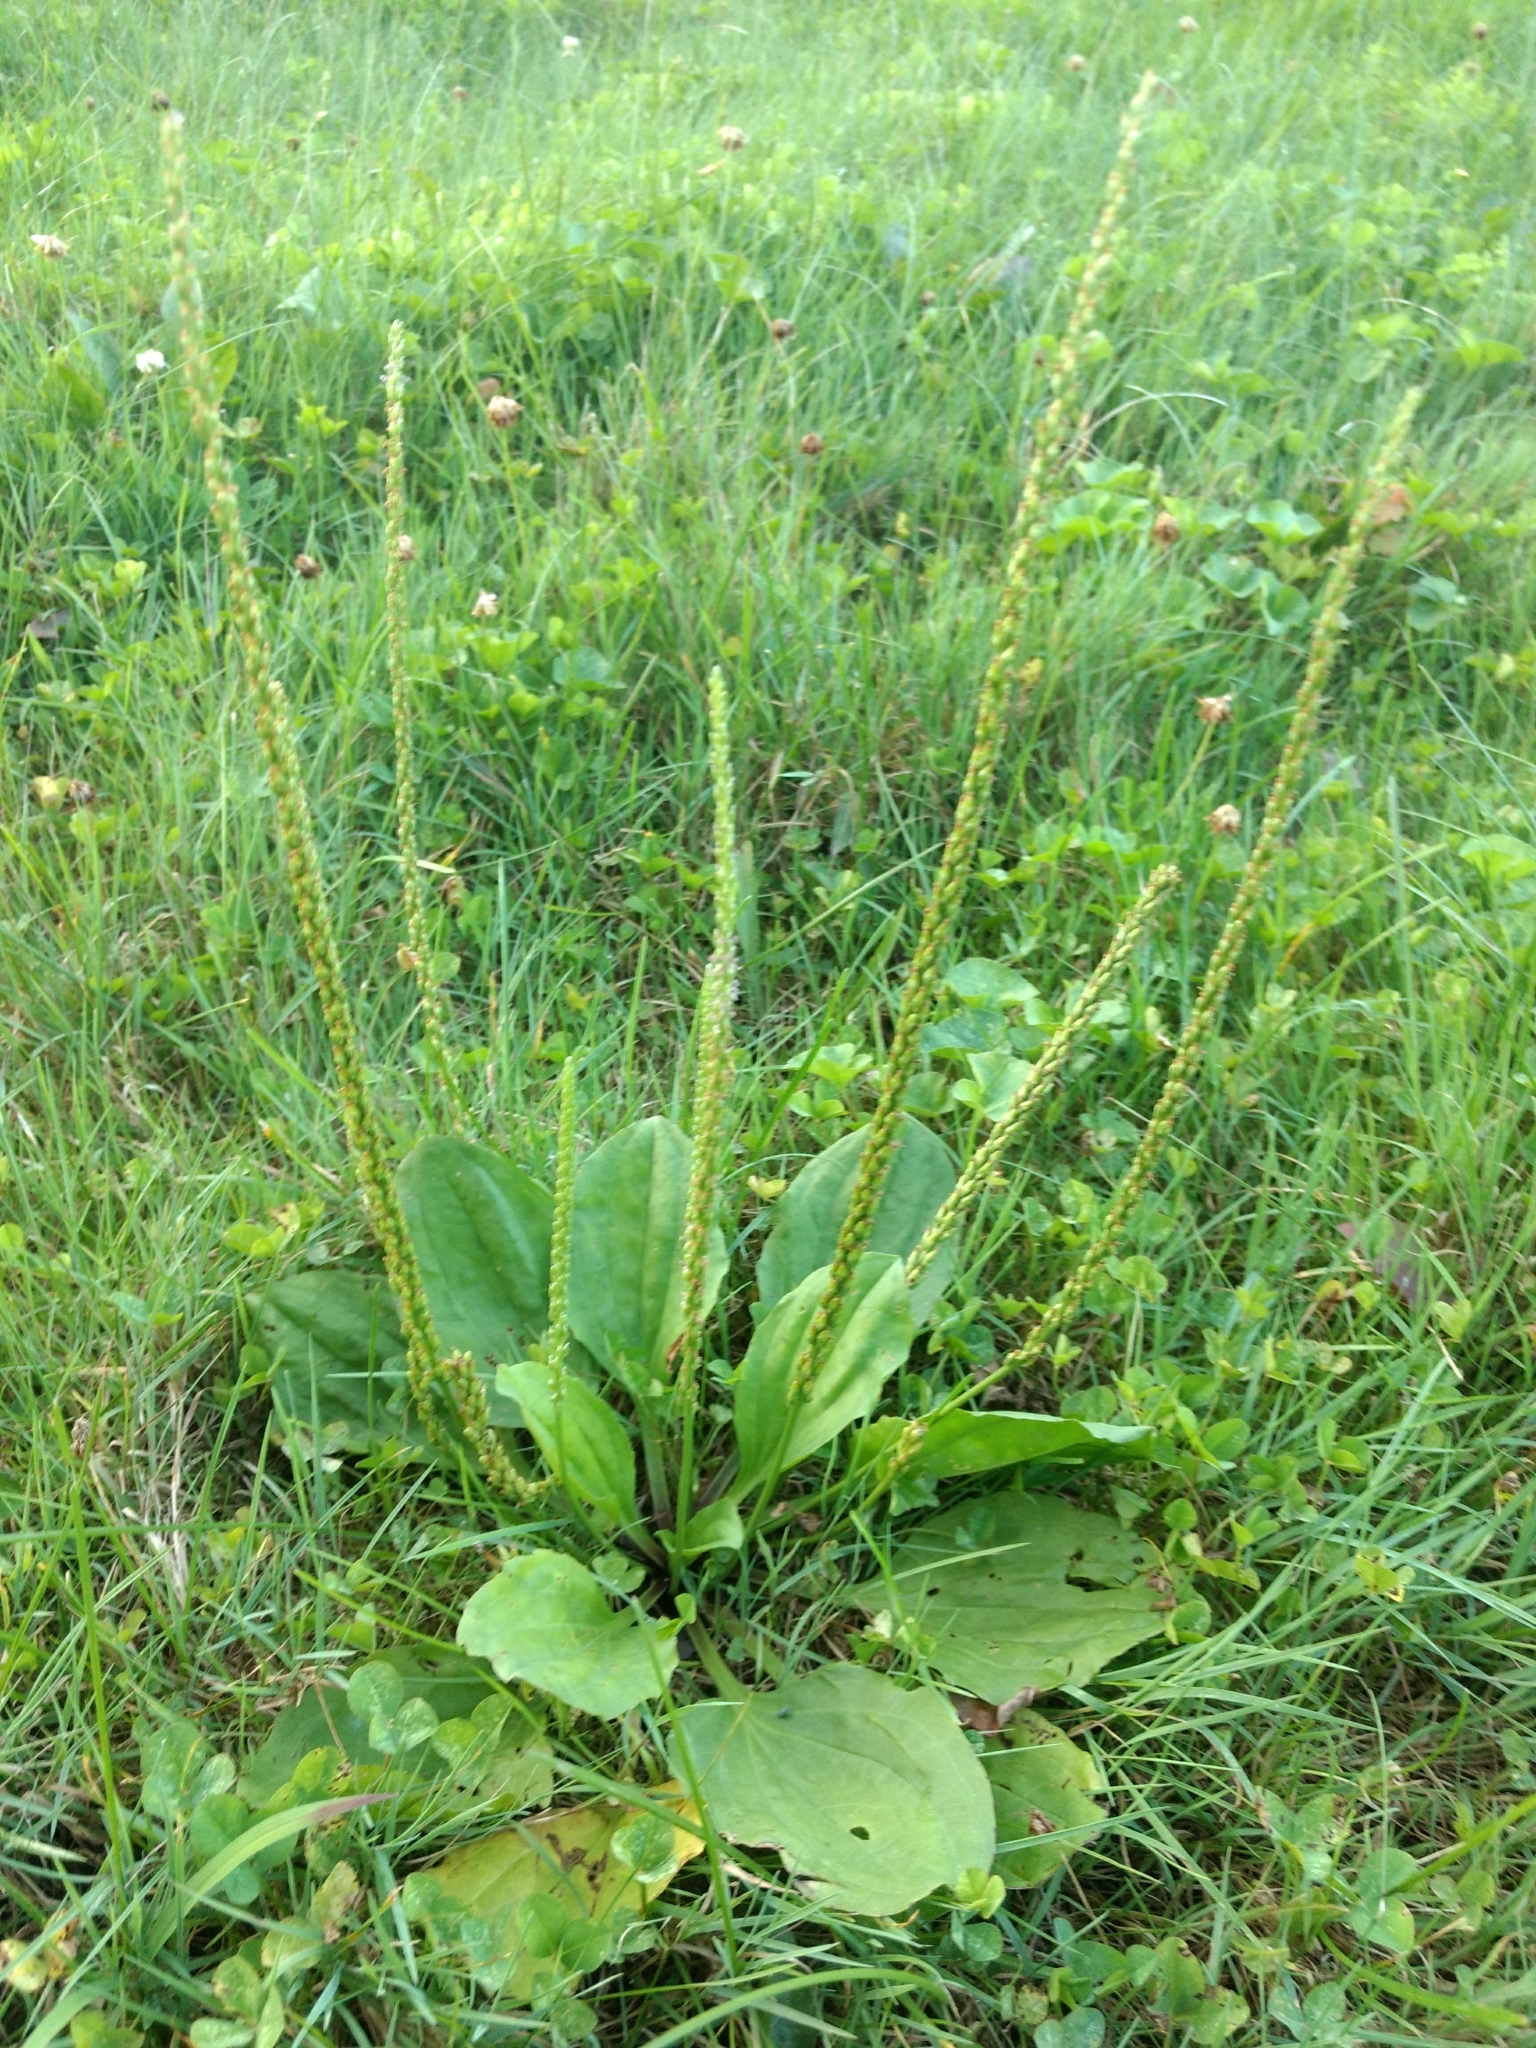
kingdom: Plantae
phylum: Tracheophyta
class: Magnoliopsida
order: Lamiales
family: Plantaginaceae
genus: Plantago
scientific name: Plantago rugelii
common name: American plantain
